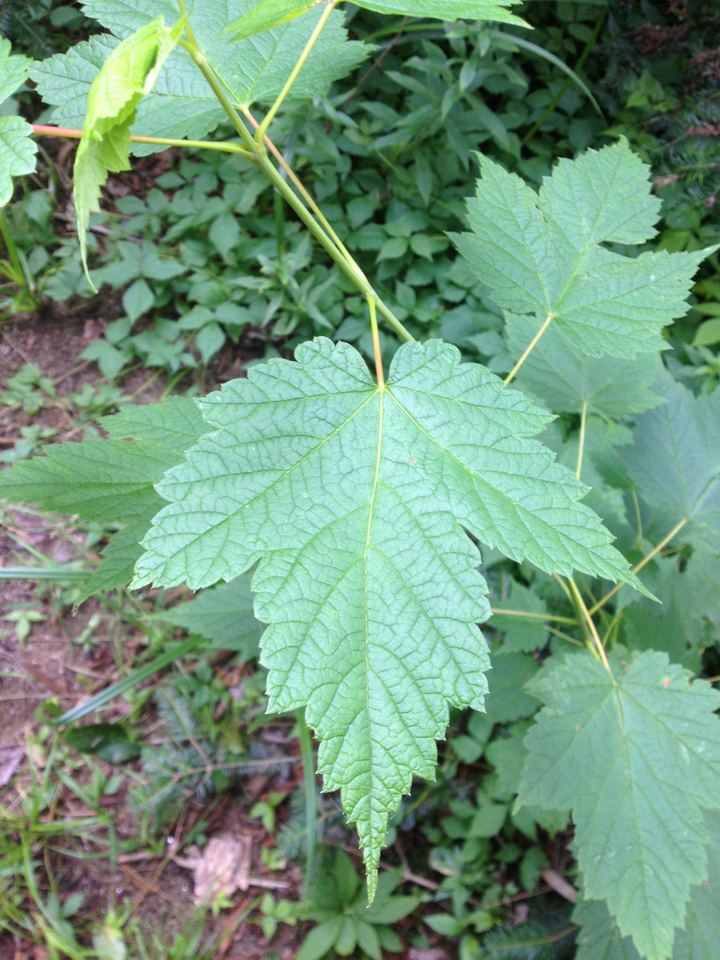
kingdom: Plantae
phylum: Tracheophyta
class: Magnoliopsida
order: Sapindales
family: Sapindaceae
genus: Acer
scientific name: Acer spicatum
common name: Mountain maple
